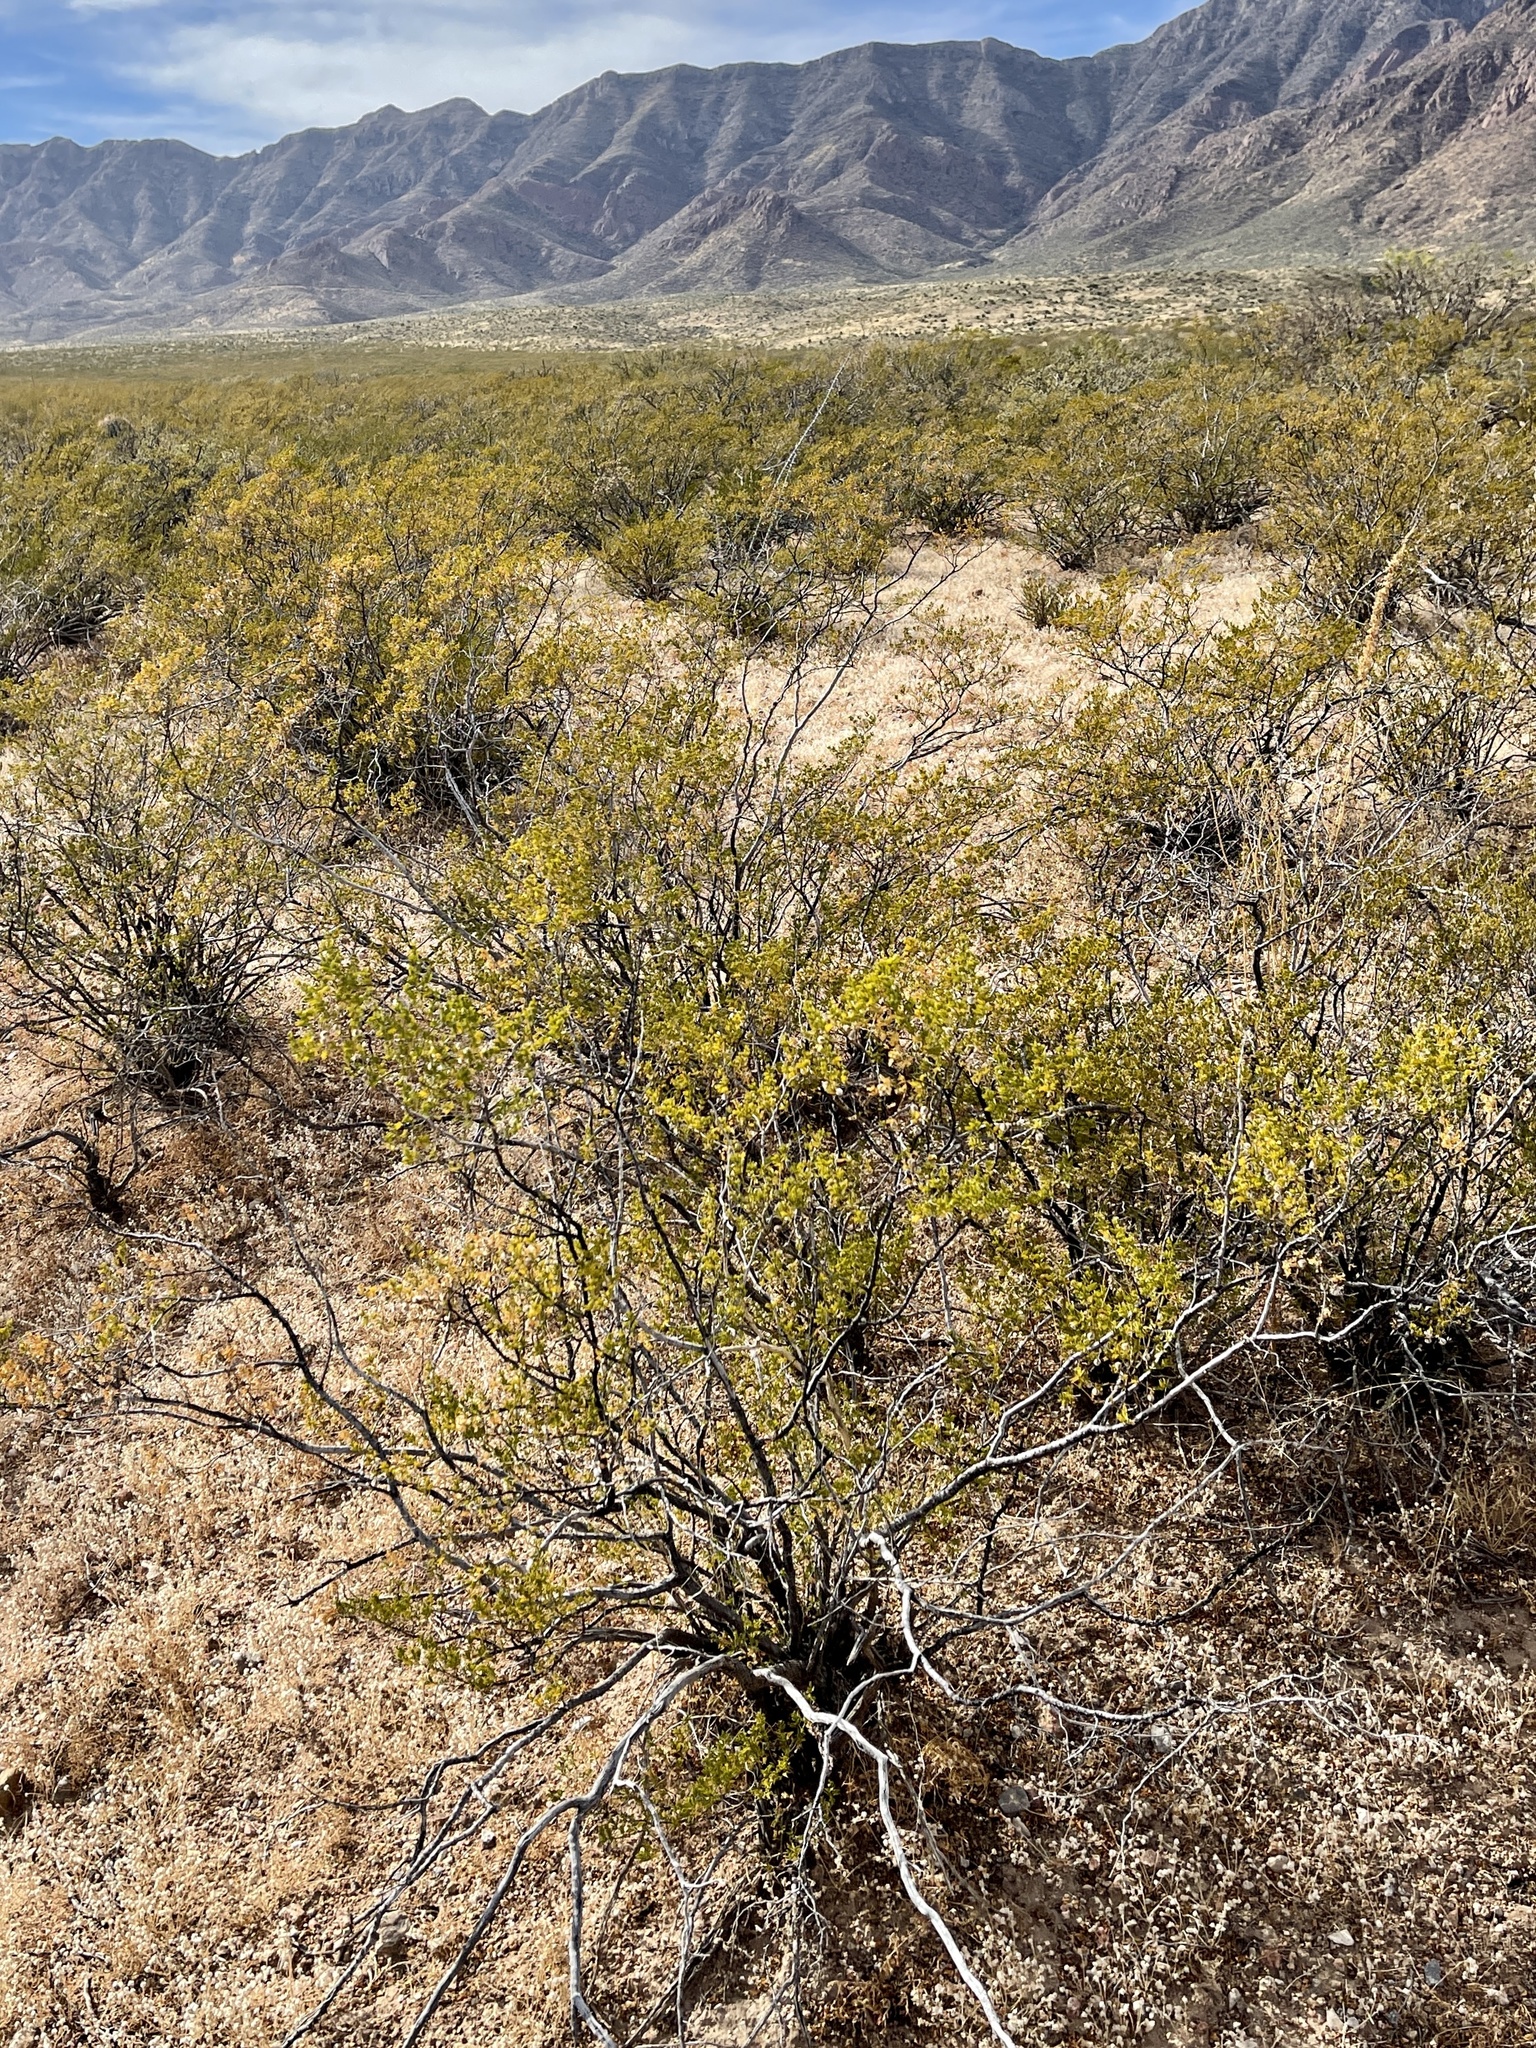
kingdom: Plantae
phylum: Tracheophyta
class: Magnoliopsida
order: Zygophyllales
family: Zygophyllaceae
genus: Larrea
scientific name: Larrea tridentata
